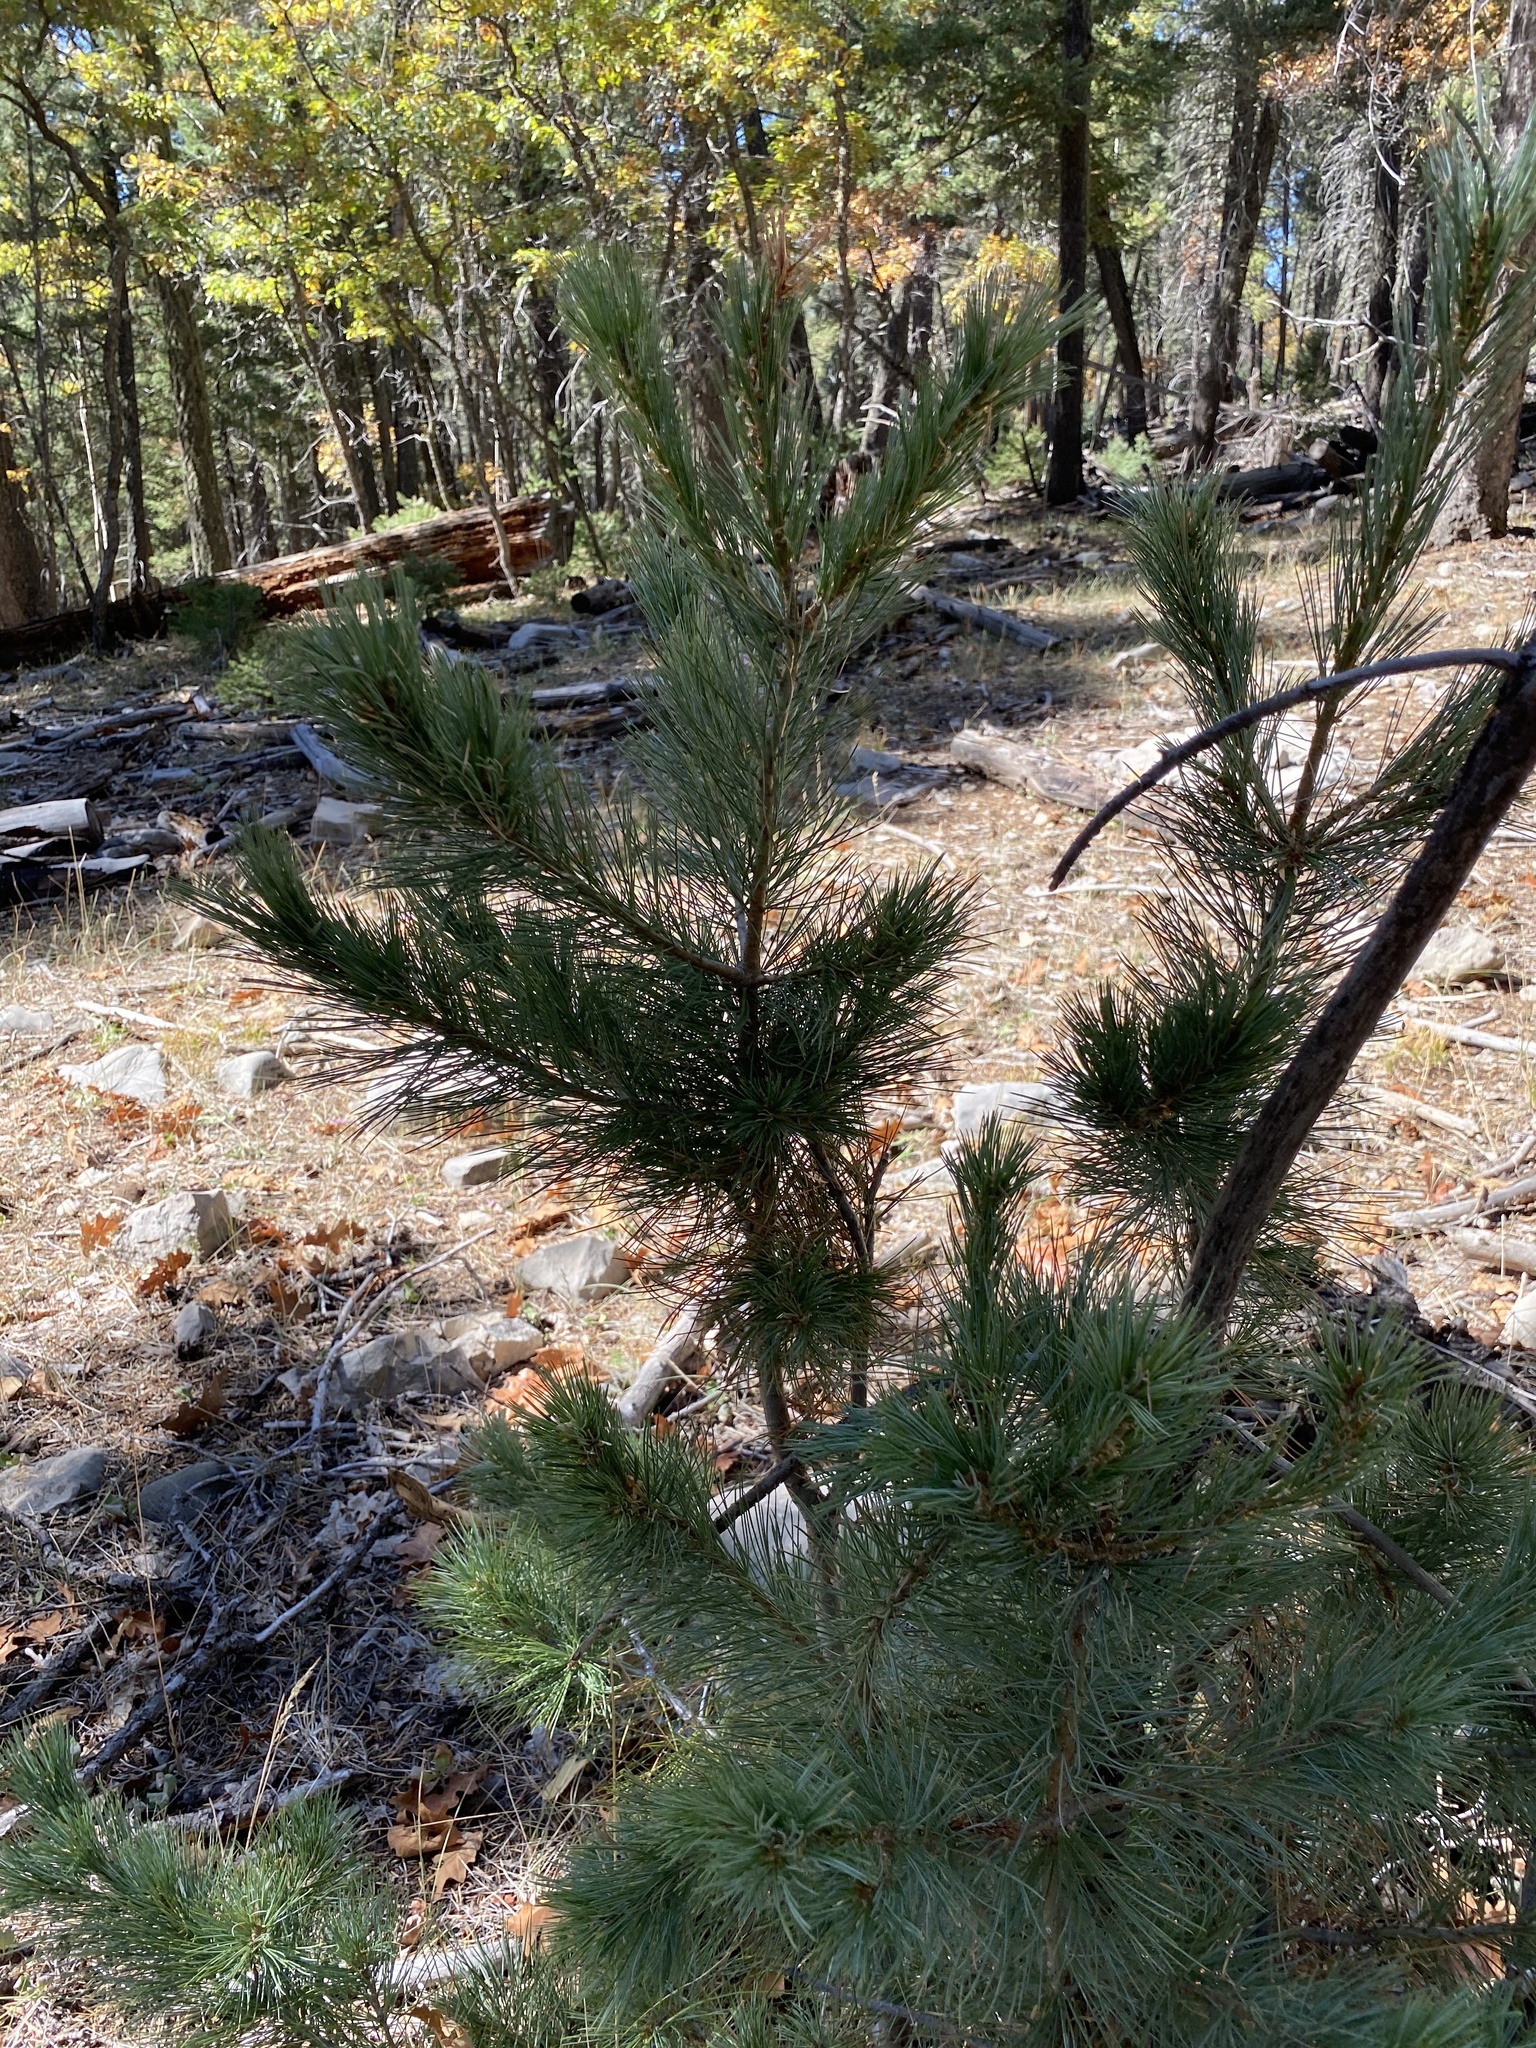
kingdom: Plantae
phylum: Tracheophyta
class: Pinopsida
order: Pinales
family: Pinaceae
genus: Pinus
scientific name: Pinus strobiformis
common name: Southwestern white pine
